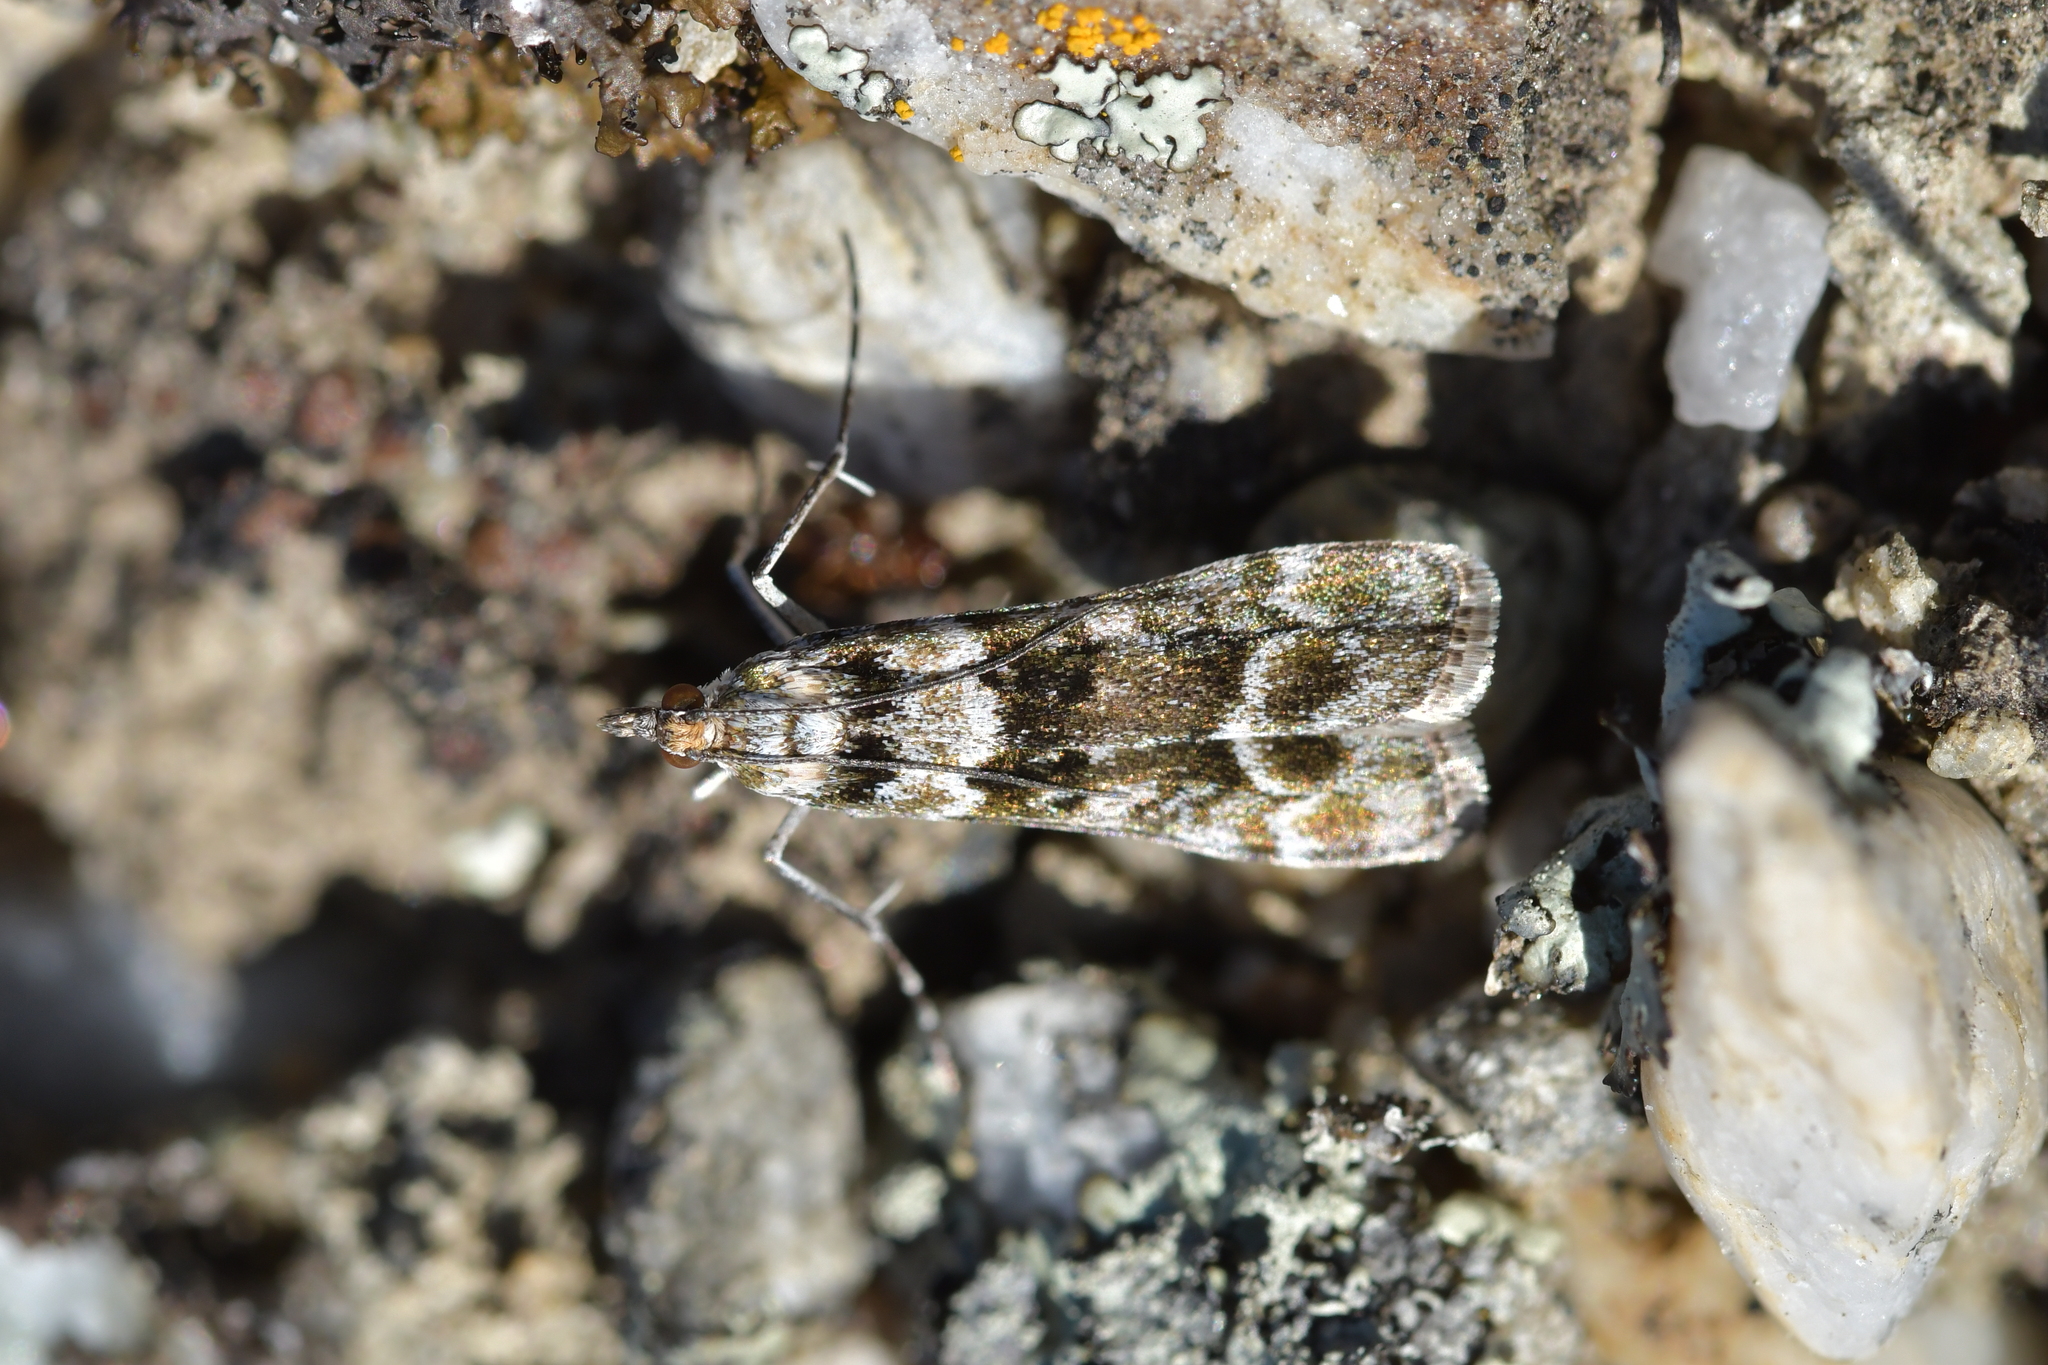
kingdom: Animalia
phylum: Arthropoda
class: Insecta
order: Lepidoptera
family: Crambidae
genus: Eudonia
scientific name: Eudonia gyrotoma
